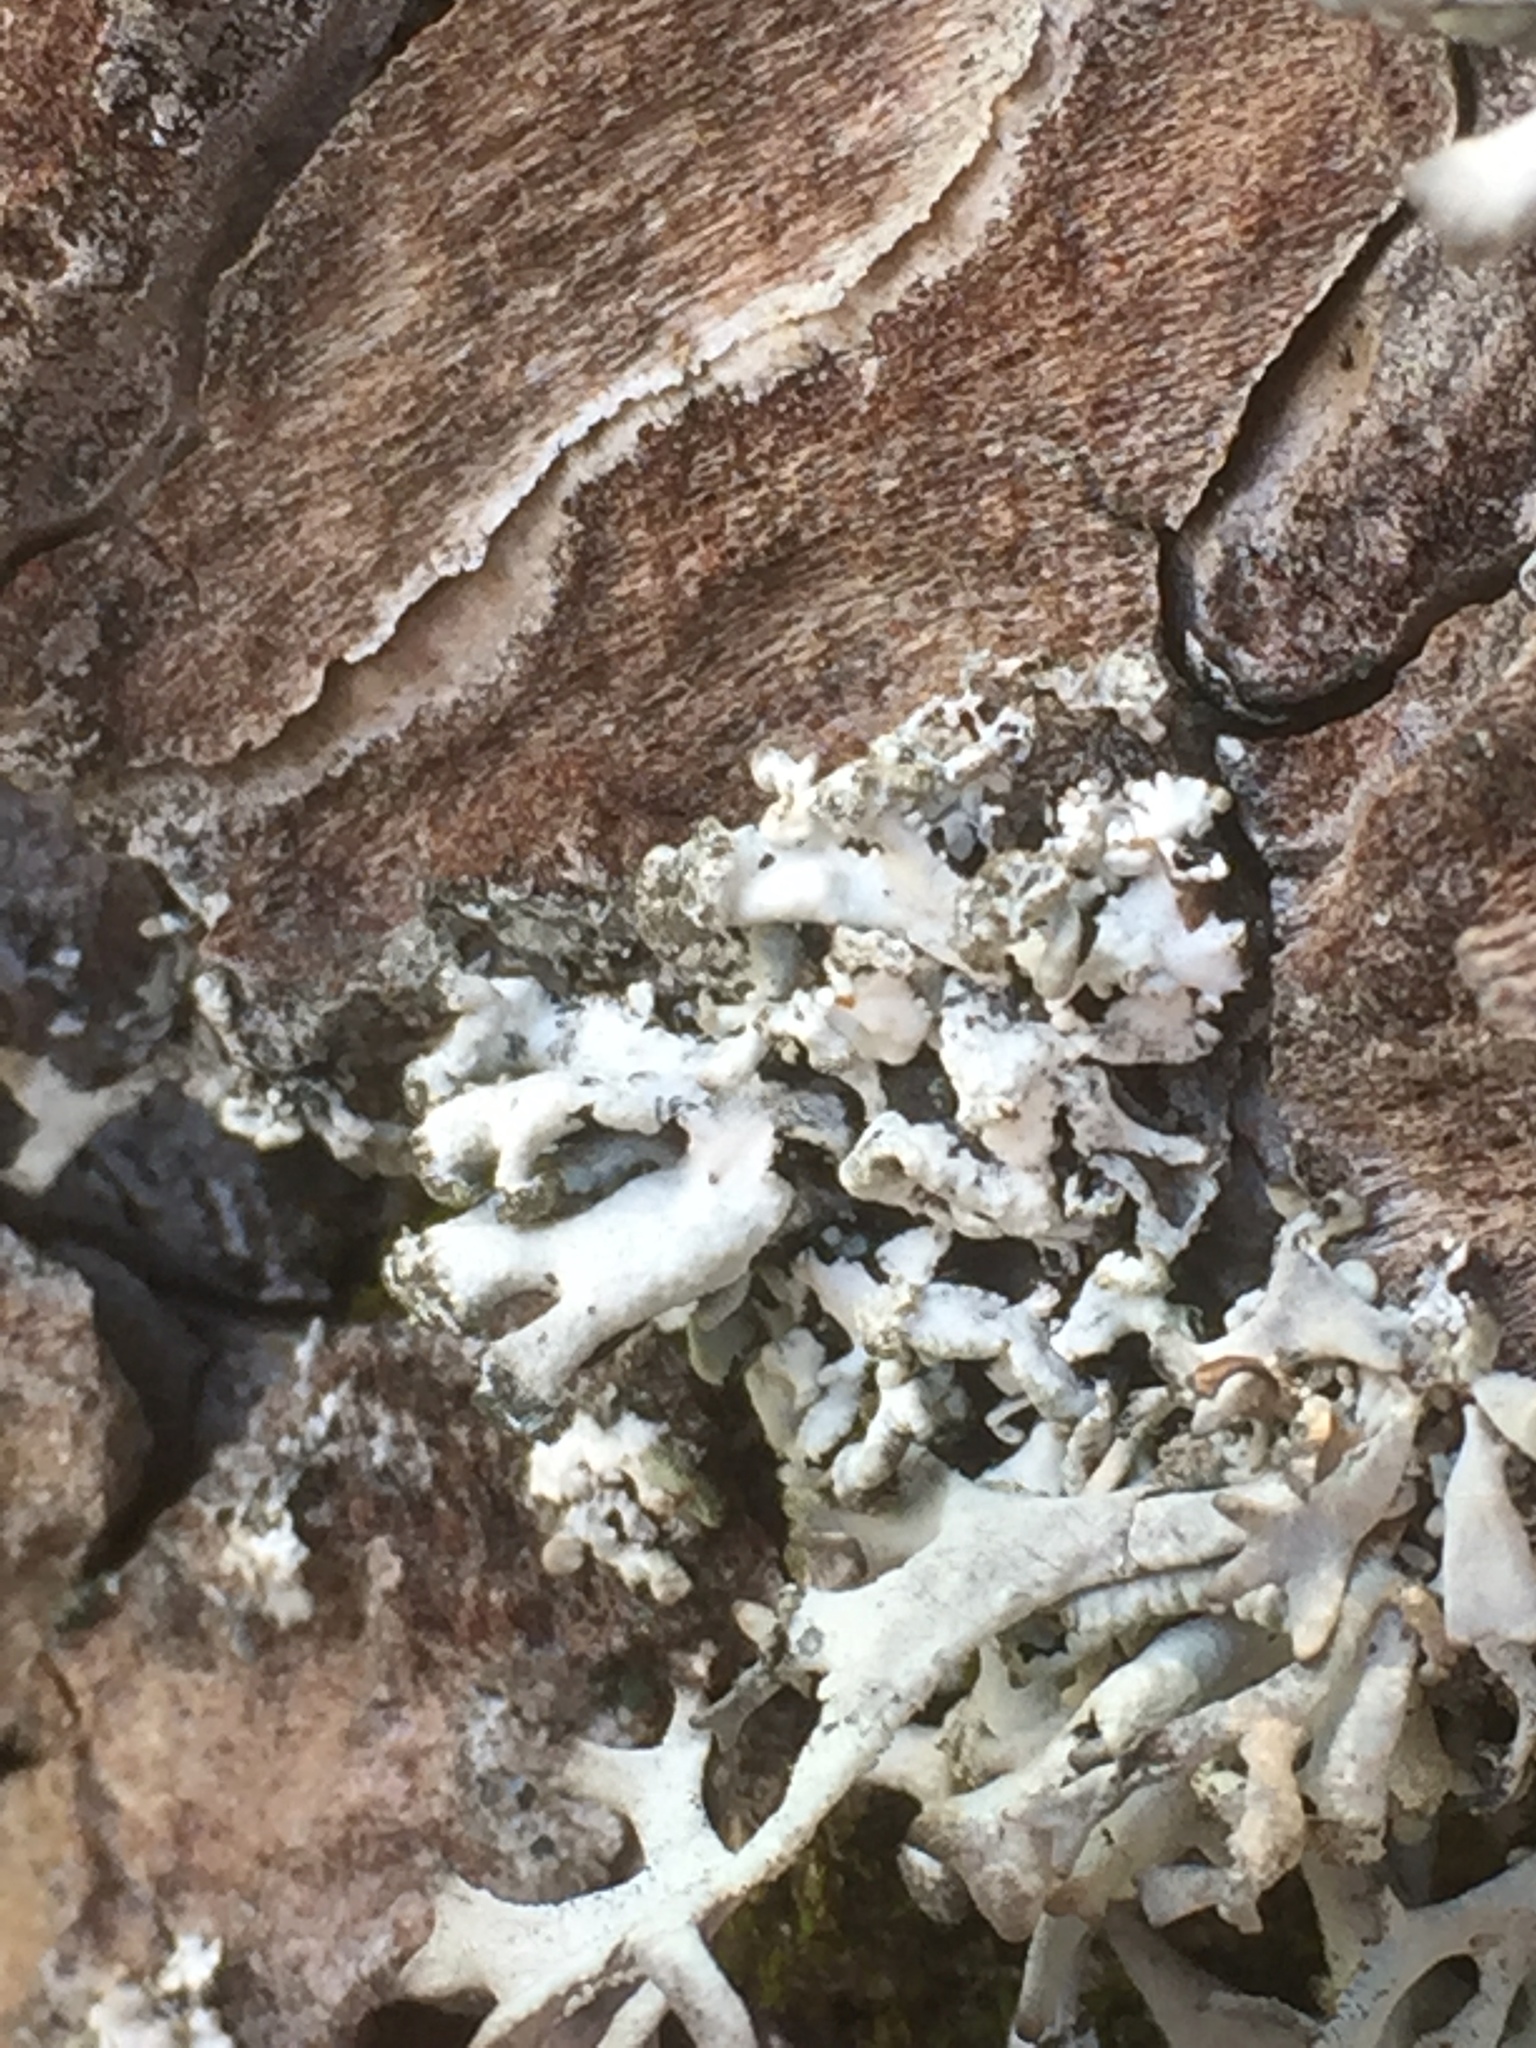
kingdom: Fungi
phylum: Ascomycota
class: Lecanoromycetes
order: Lecanorales
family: Parmeliaceae
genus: Hypogymnia
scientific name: Hypogymnia tubulosa
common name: Powder-headed tube lichen
